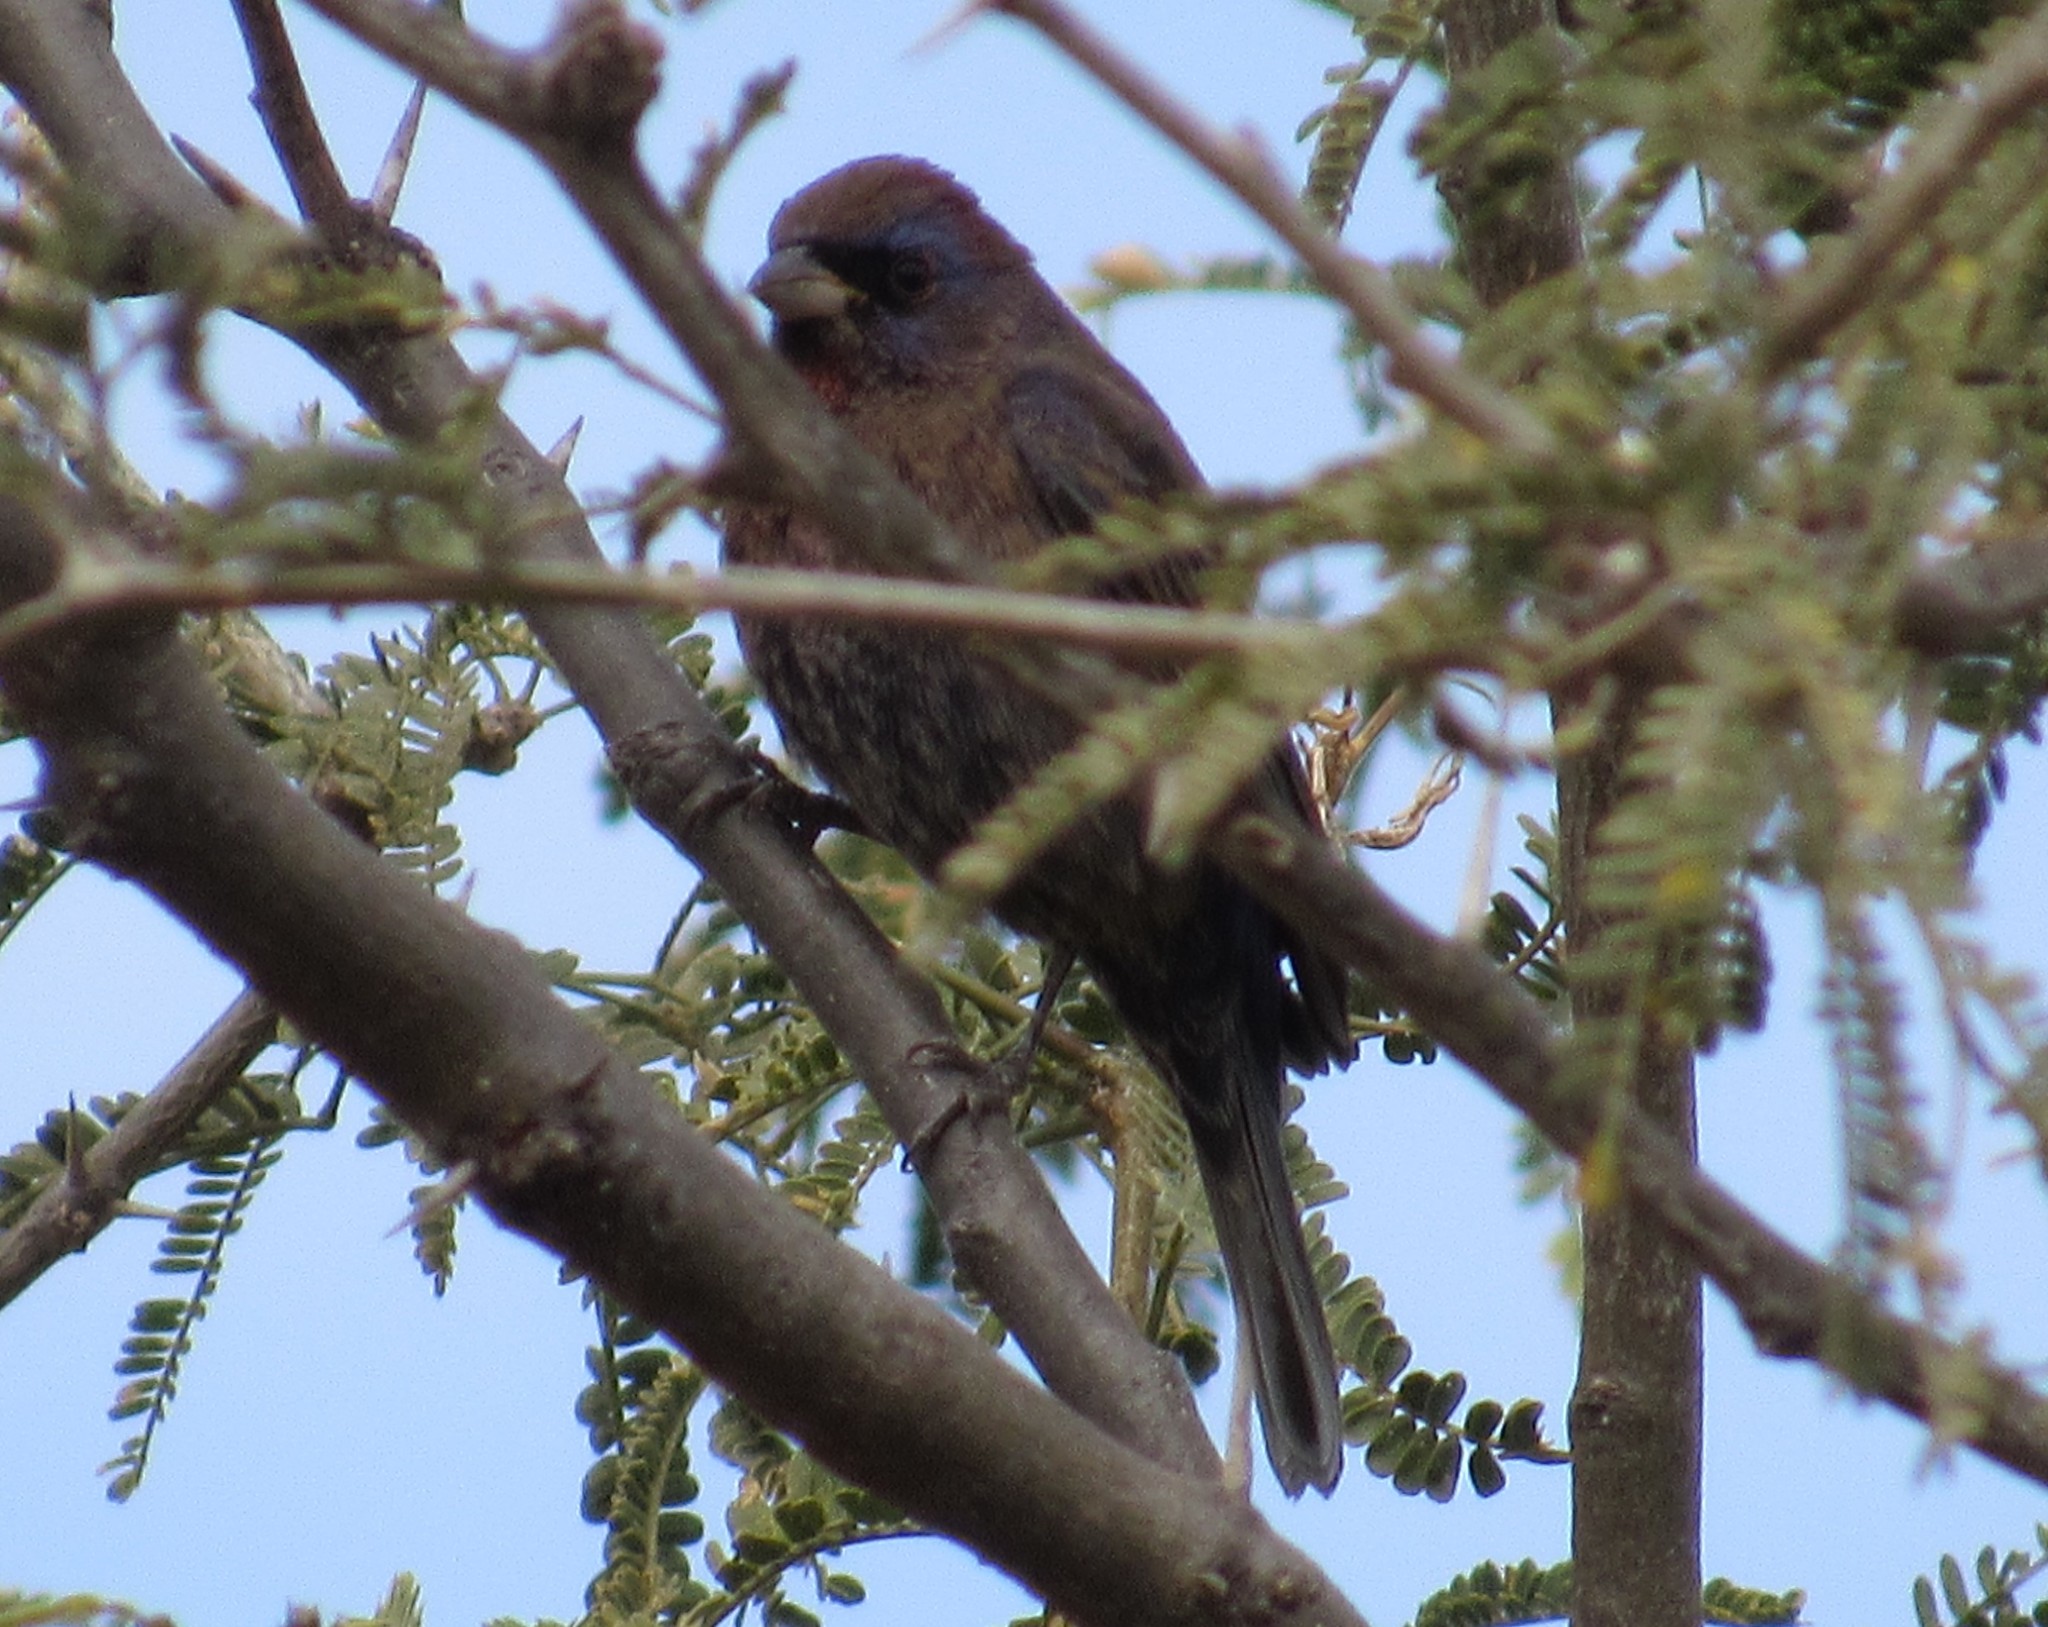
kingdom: Animalia
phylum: Chordata
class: Aves
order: Passeriformes
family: Cardinalidae
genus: Passerina
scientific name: Passerina versicolor
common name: Varied bunting
